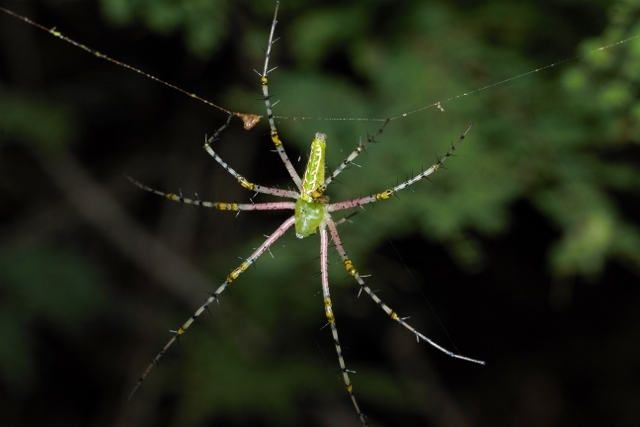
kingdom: Animalia
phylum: Arthropoda
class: Arachnida
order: Araneae
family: Oxyopidae
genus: Peucetia
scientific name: Peucetia striata
